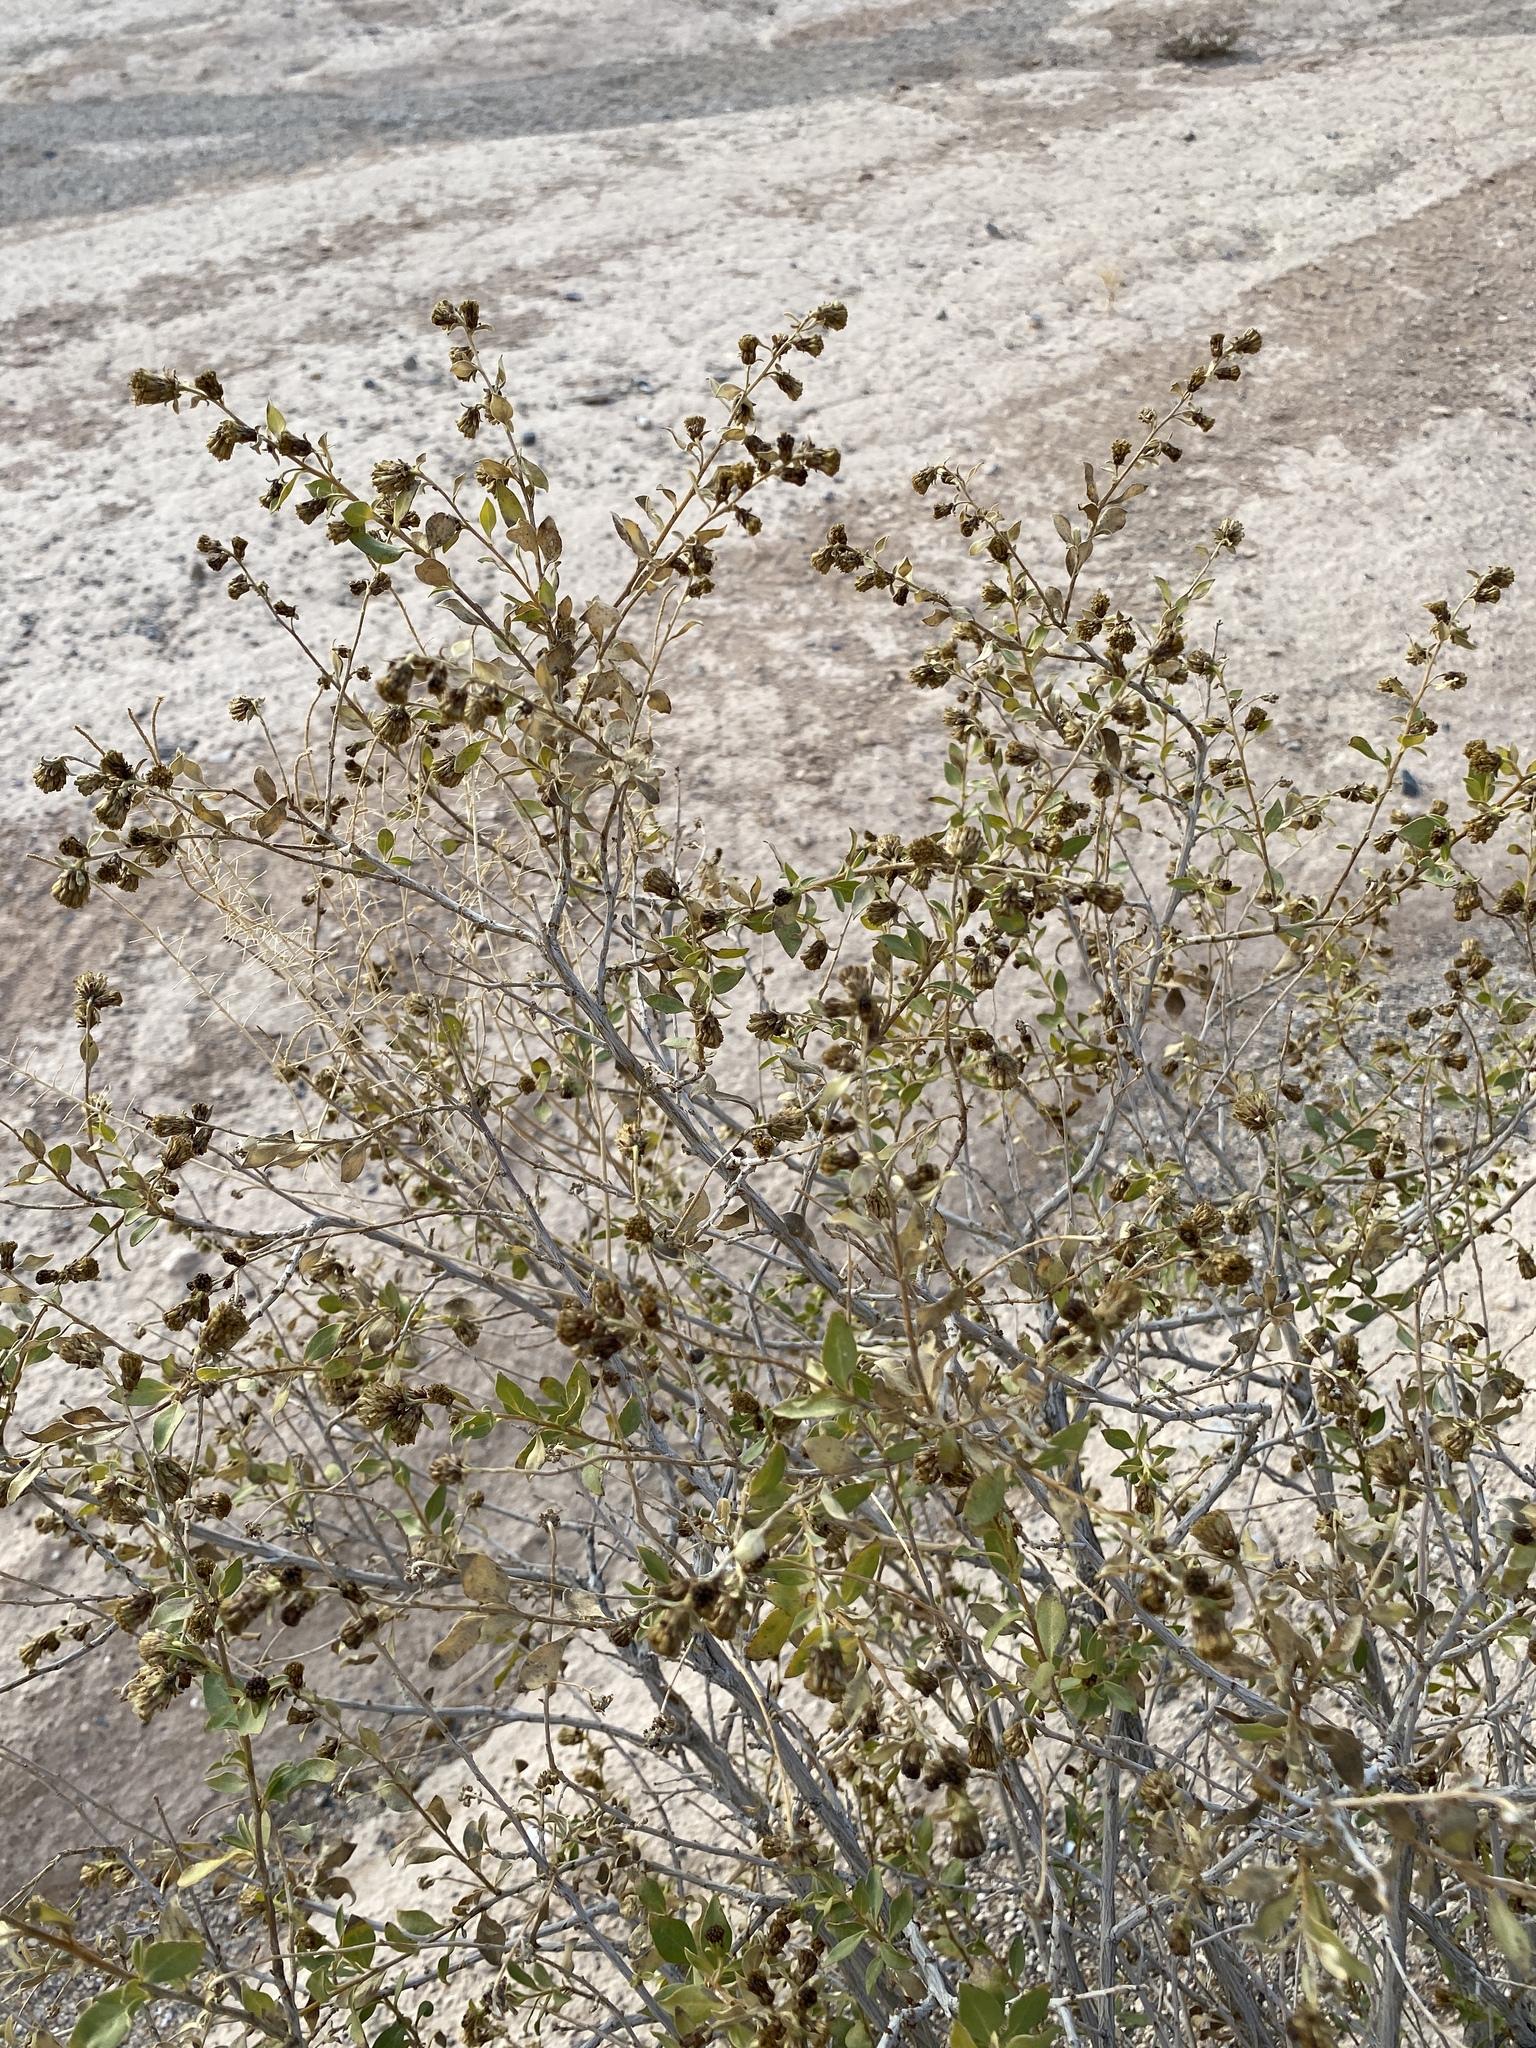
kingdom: Plantae
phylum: Tracheophyta
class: Magnoliopsida
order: Asterales
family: Asteraceae
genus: Flourensia
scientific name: Flourensia cernua
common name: Varnishbush
